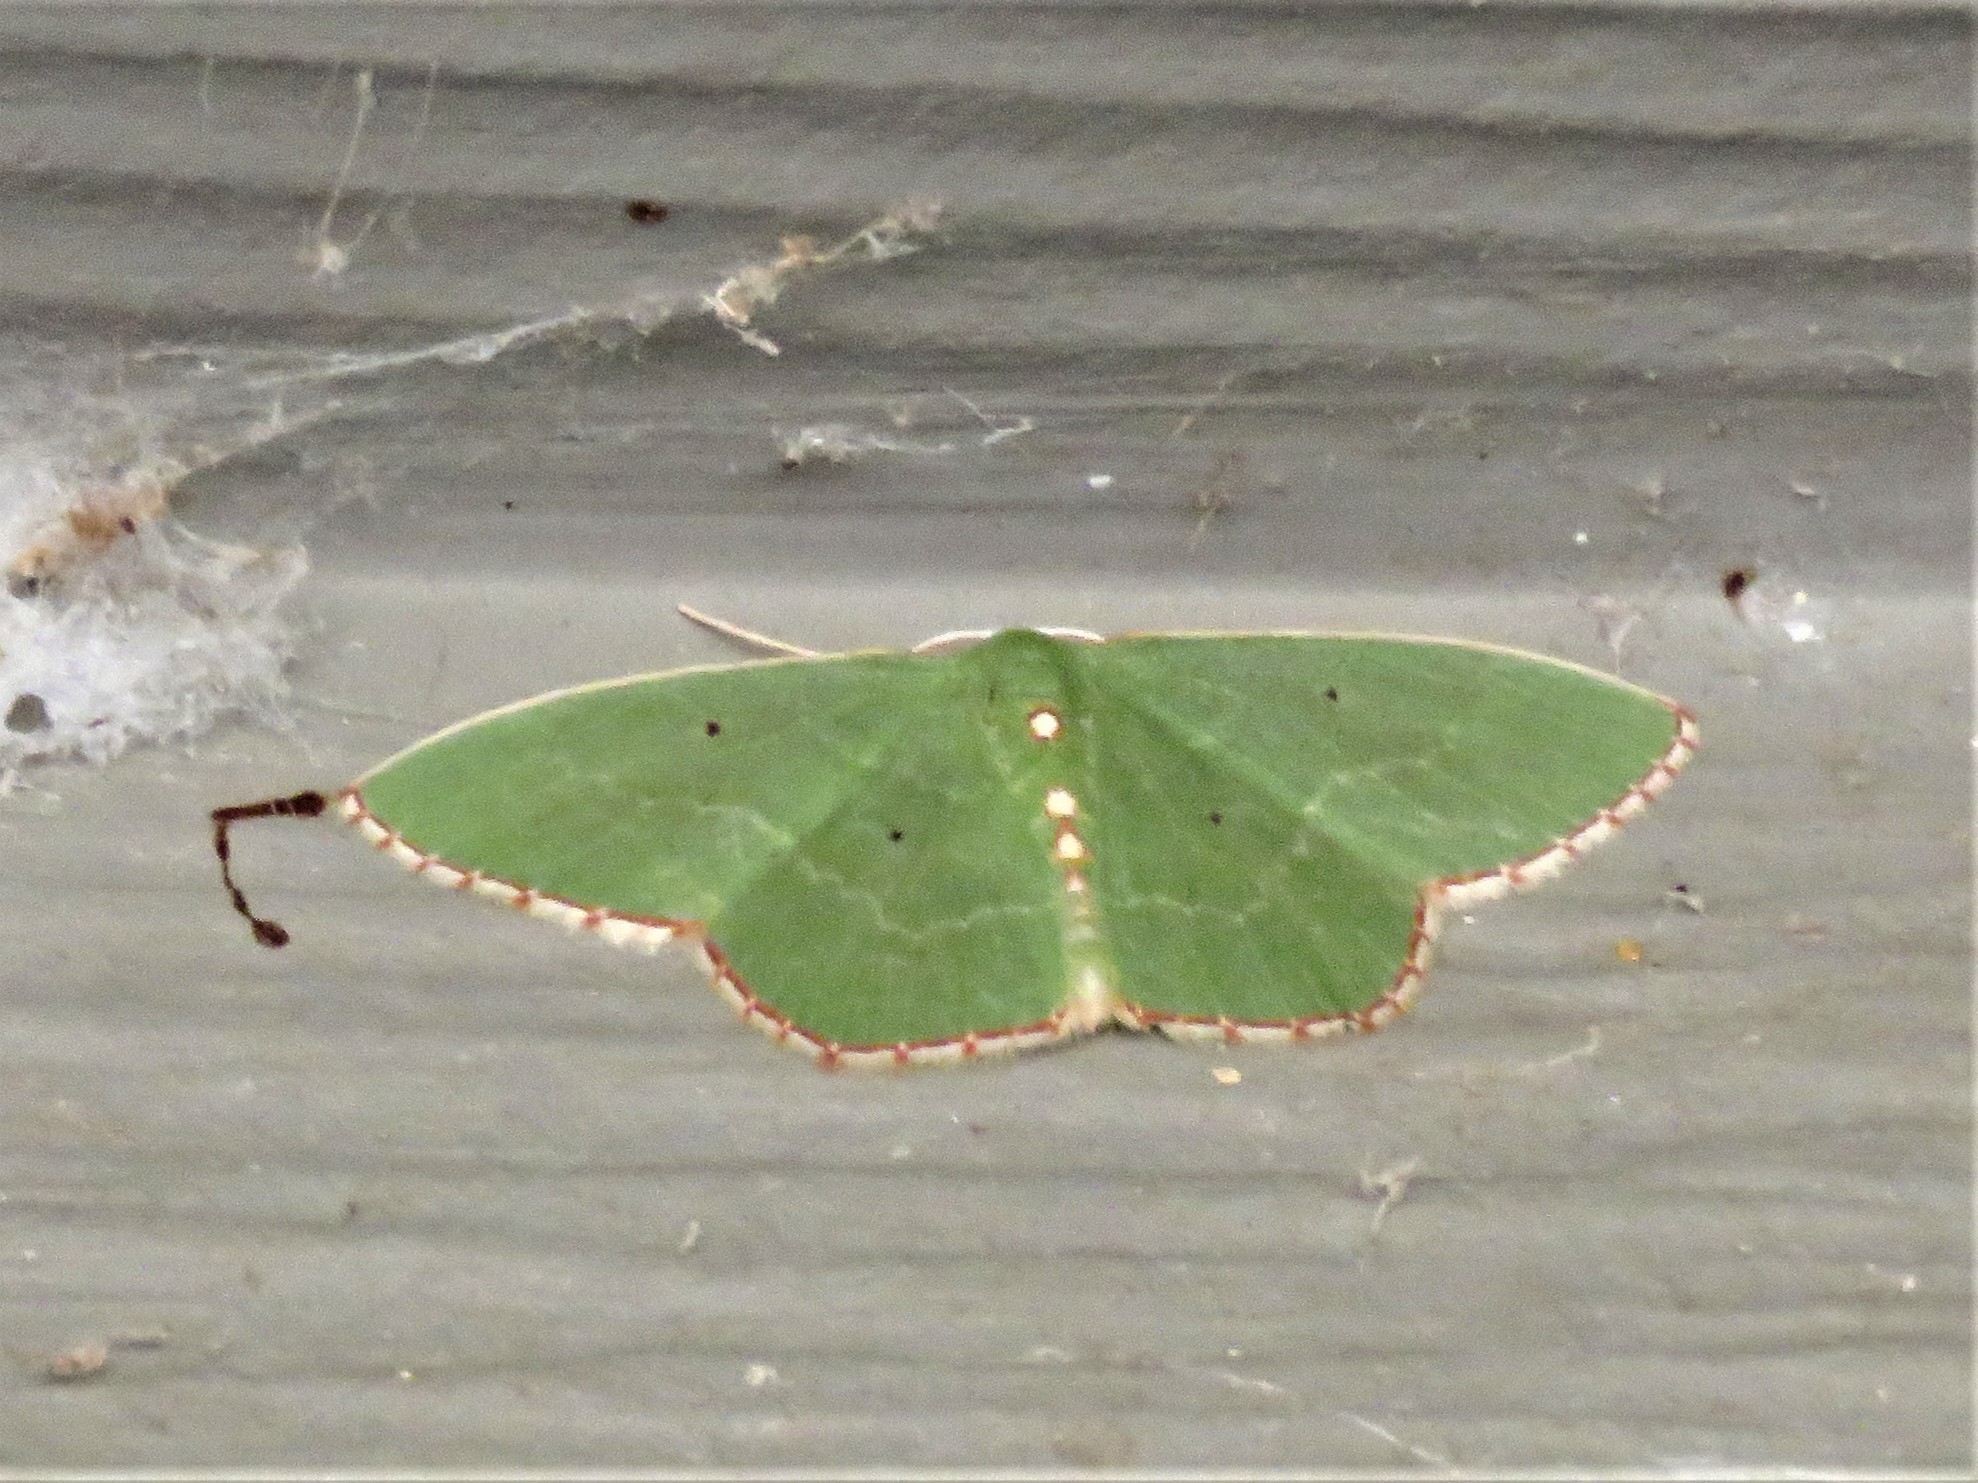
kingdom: Animalia
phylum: Arthropoda
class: Insecta
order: Lepidoptera
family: Geometridae
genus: Nemoria
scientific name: Nemoria lixaria
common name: Red-bordered emerald
